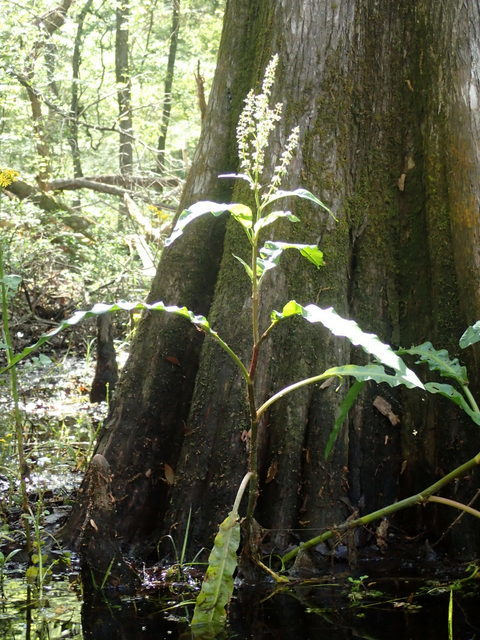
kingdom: Plantae
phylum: Tracheophyta
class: Magnoliopsida
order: Caryophyllales
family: Polygonaceae
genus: Rumex
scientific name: Rumex verticillatus
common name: Swamp dock
